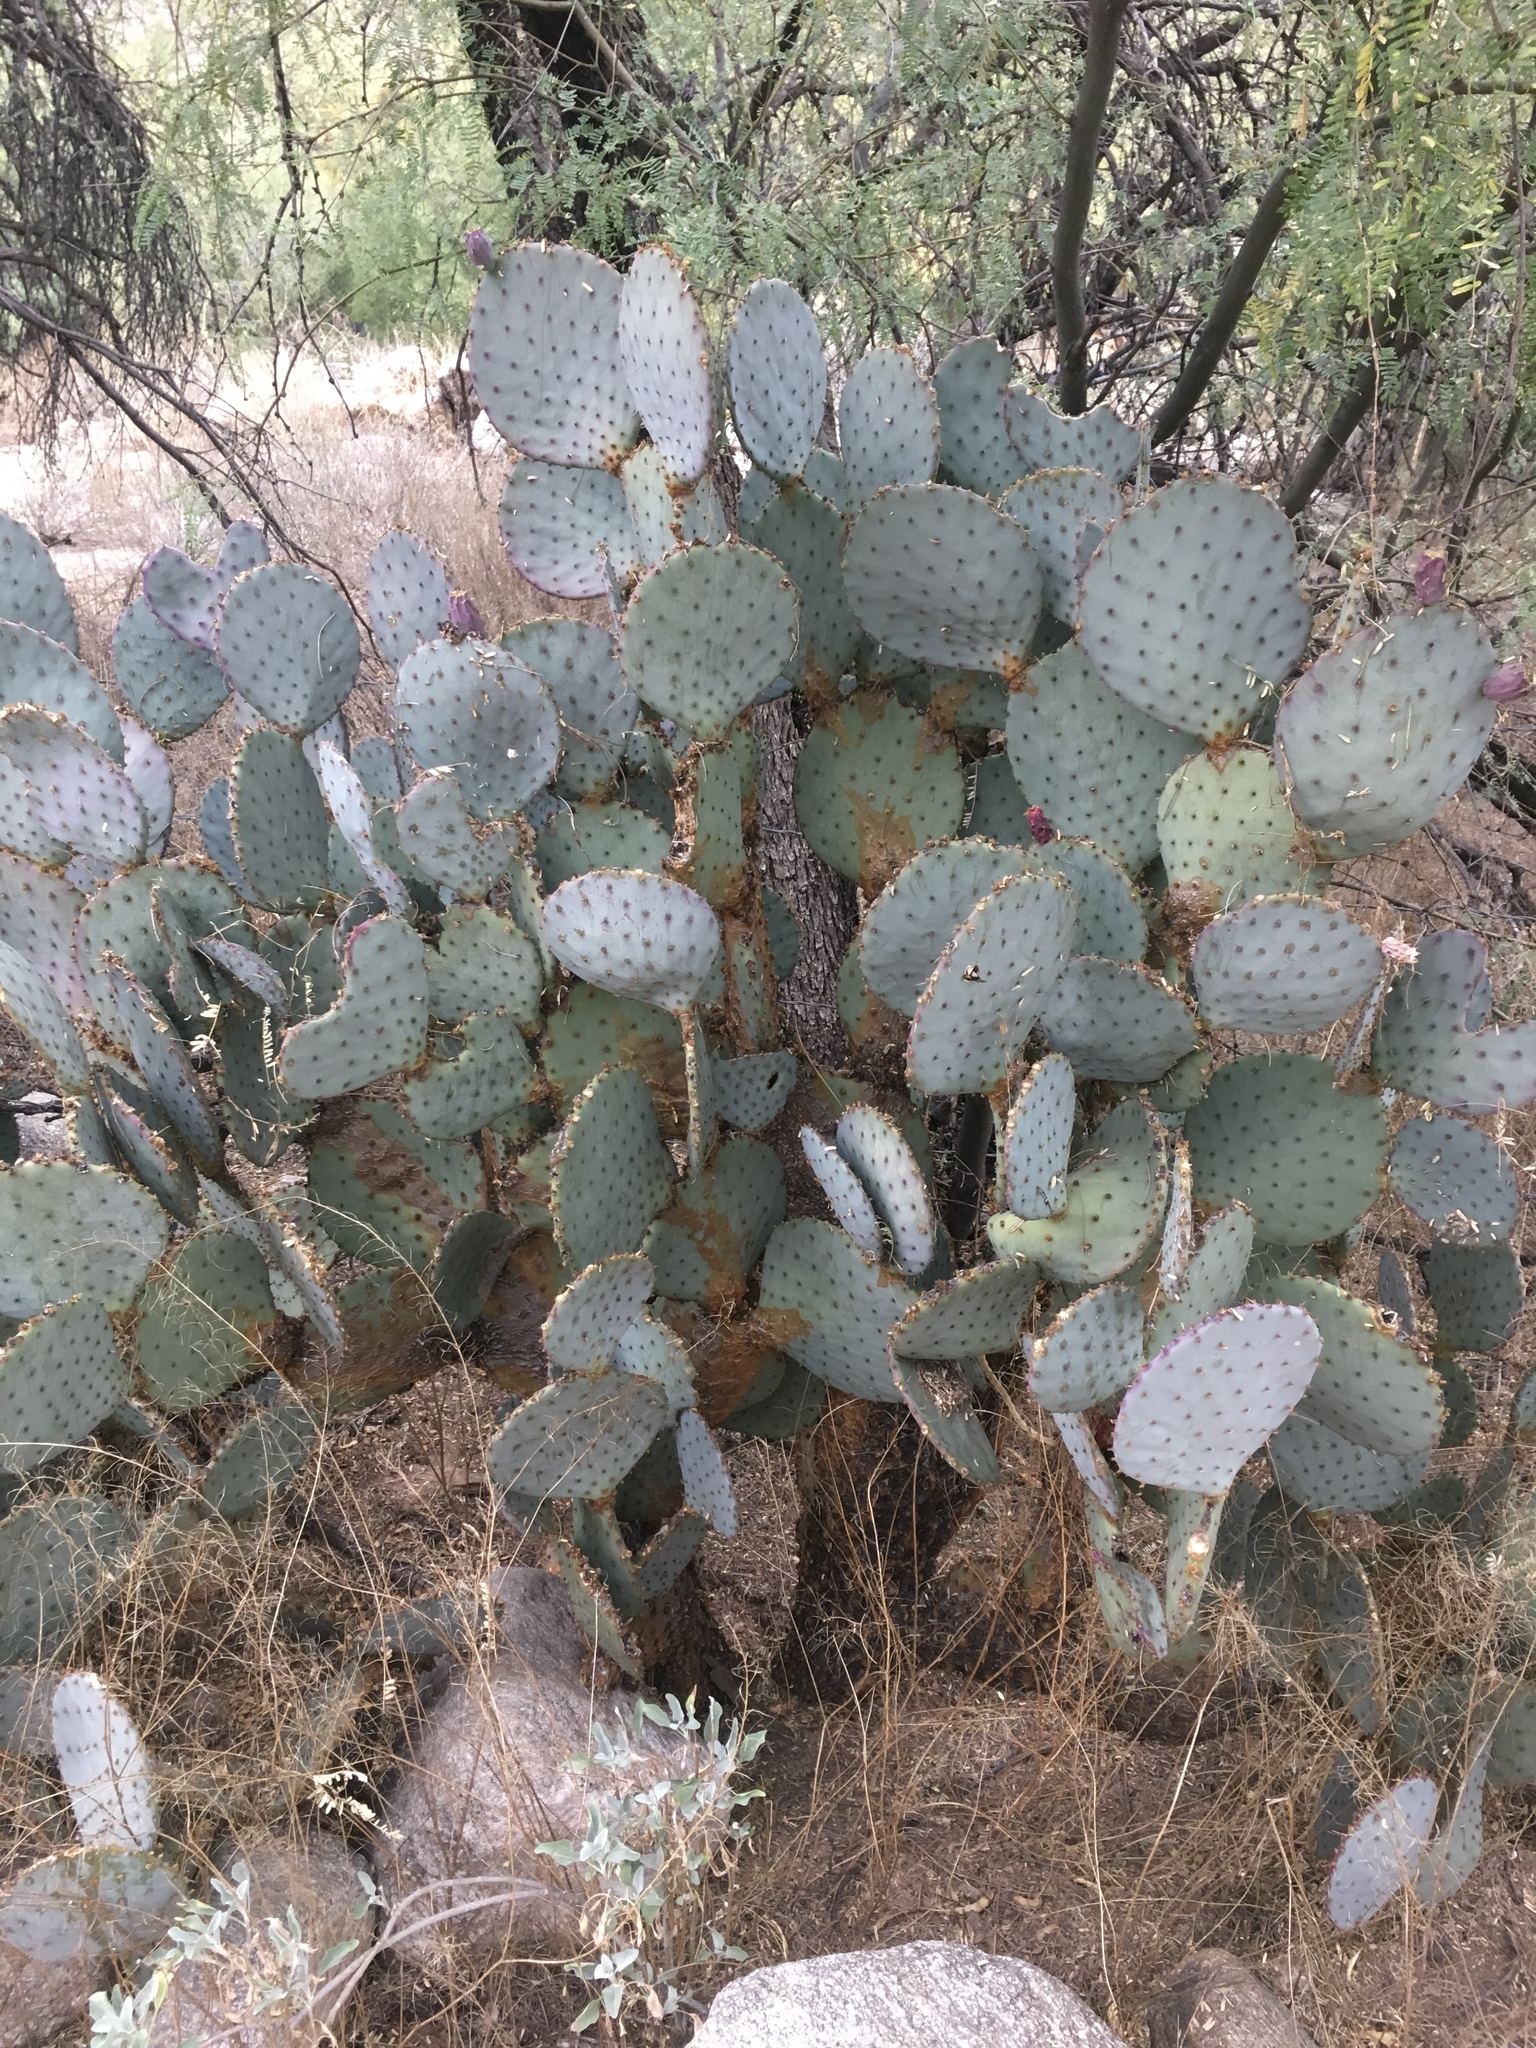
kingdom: Plantae
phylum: Tracheophyta
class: Magnoliopsida
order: Caryophyllales
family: Cactaceae
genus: Opuntia
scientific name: Opuntia gosseliniana
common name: Violet prickly-pear
